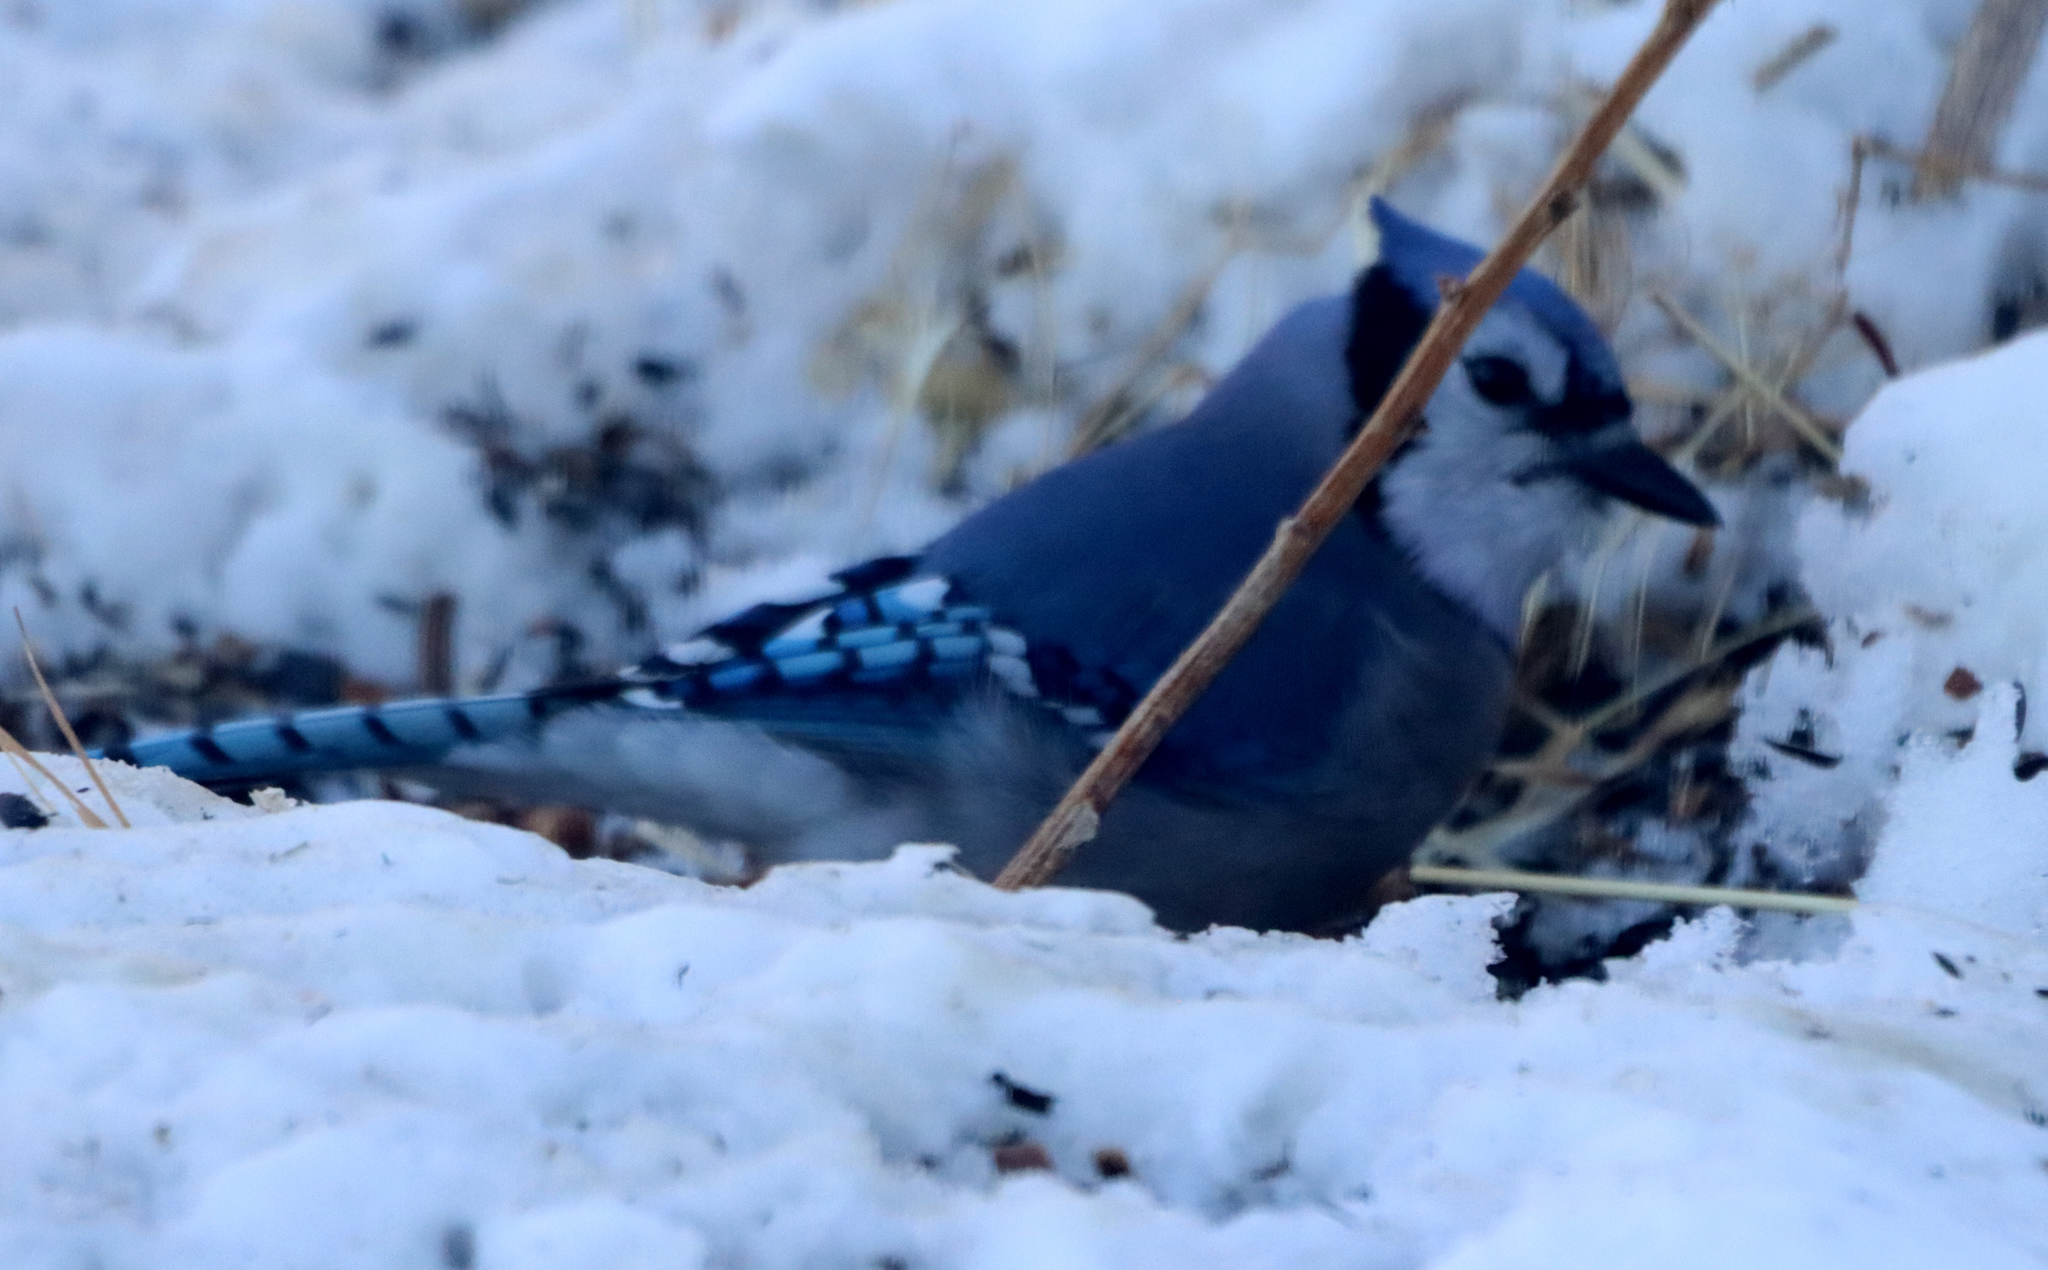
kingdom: Animalia
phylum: Chordata
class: Aves
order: Passeriformes
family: Corvidae
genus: Cyanocitta
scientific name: Cyanocitta cristata
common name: Blue jay
